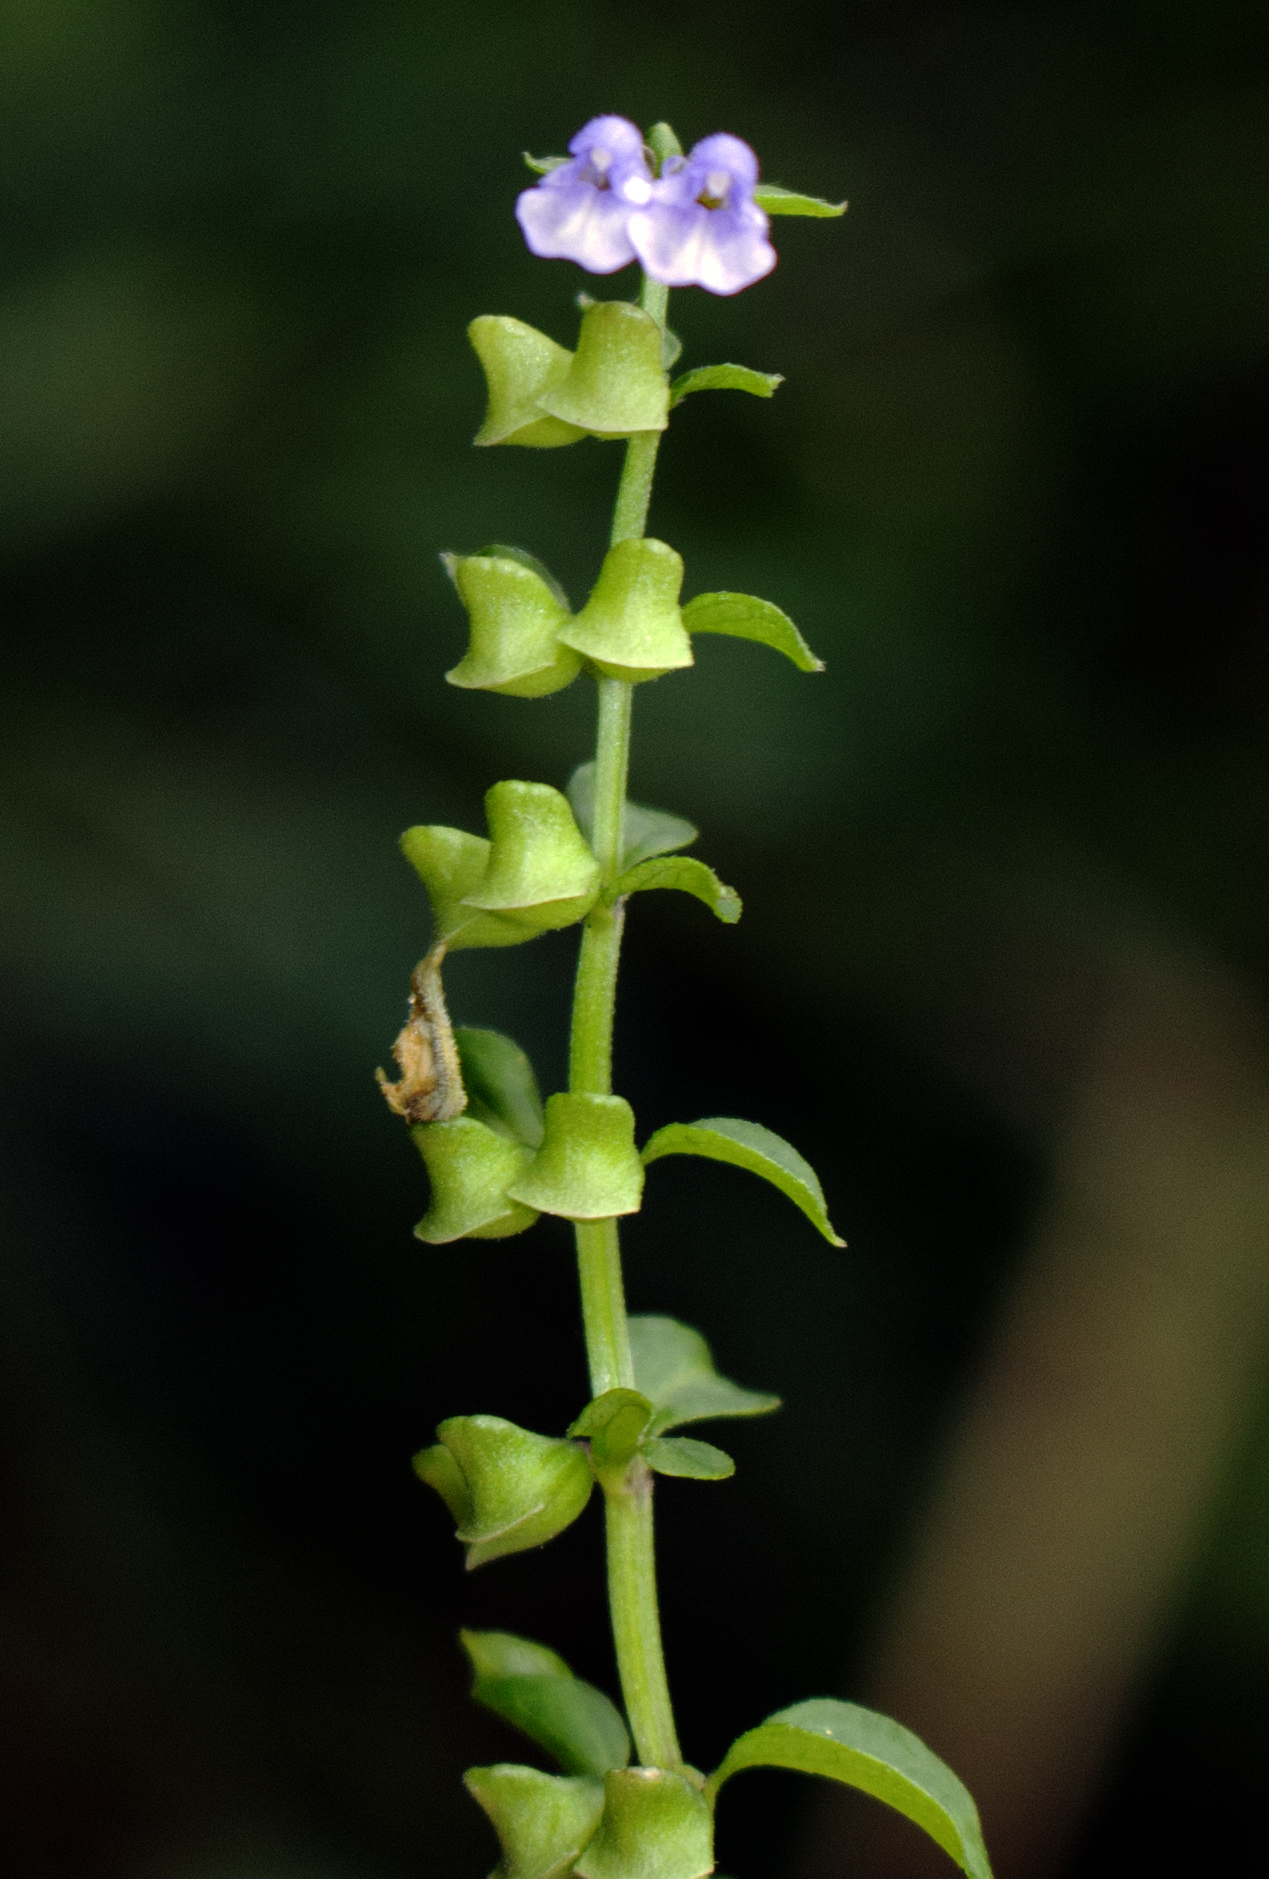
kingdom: Plantae
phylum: Tracheophyta
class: Magnoliopsida
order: Lamiales
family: Lamiaceae
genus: Scutellaria
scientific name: Scutellaria lateriflora
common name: Blue skullcap
